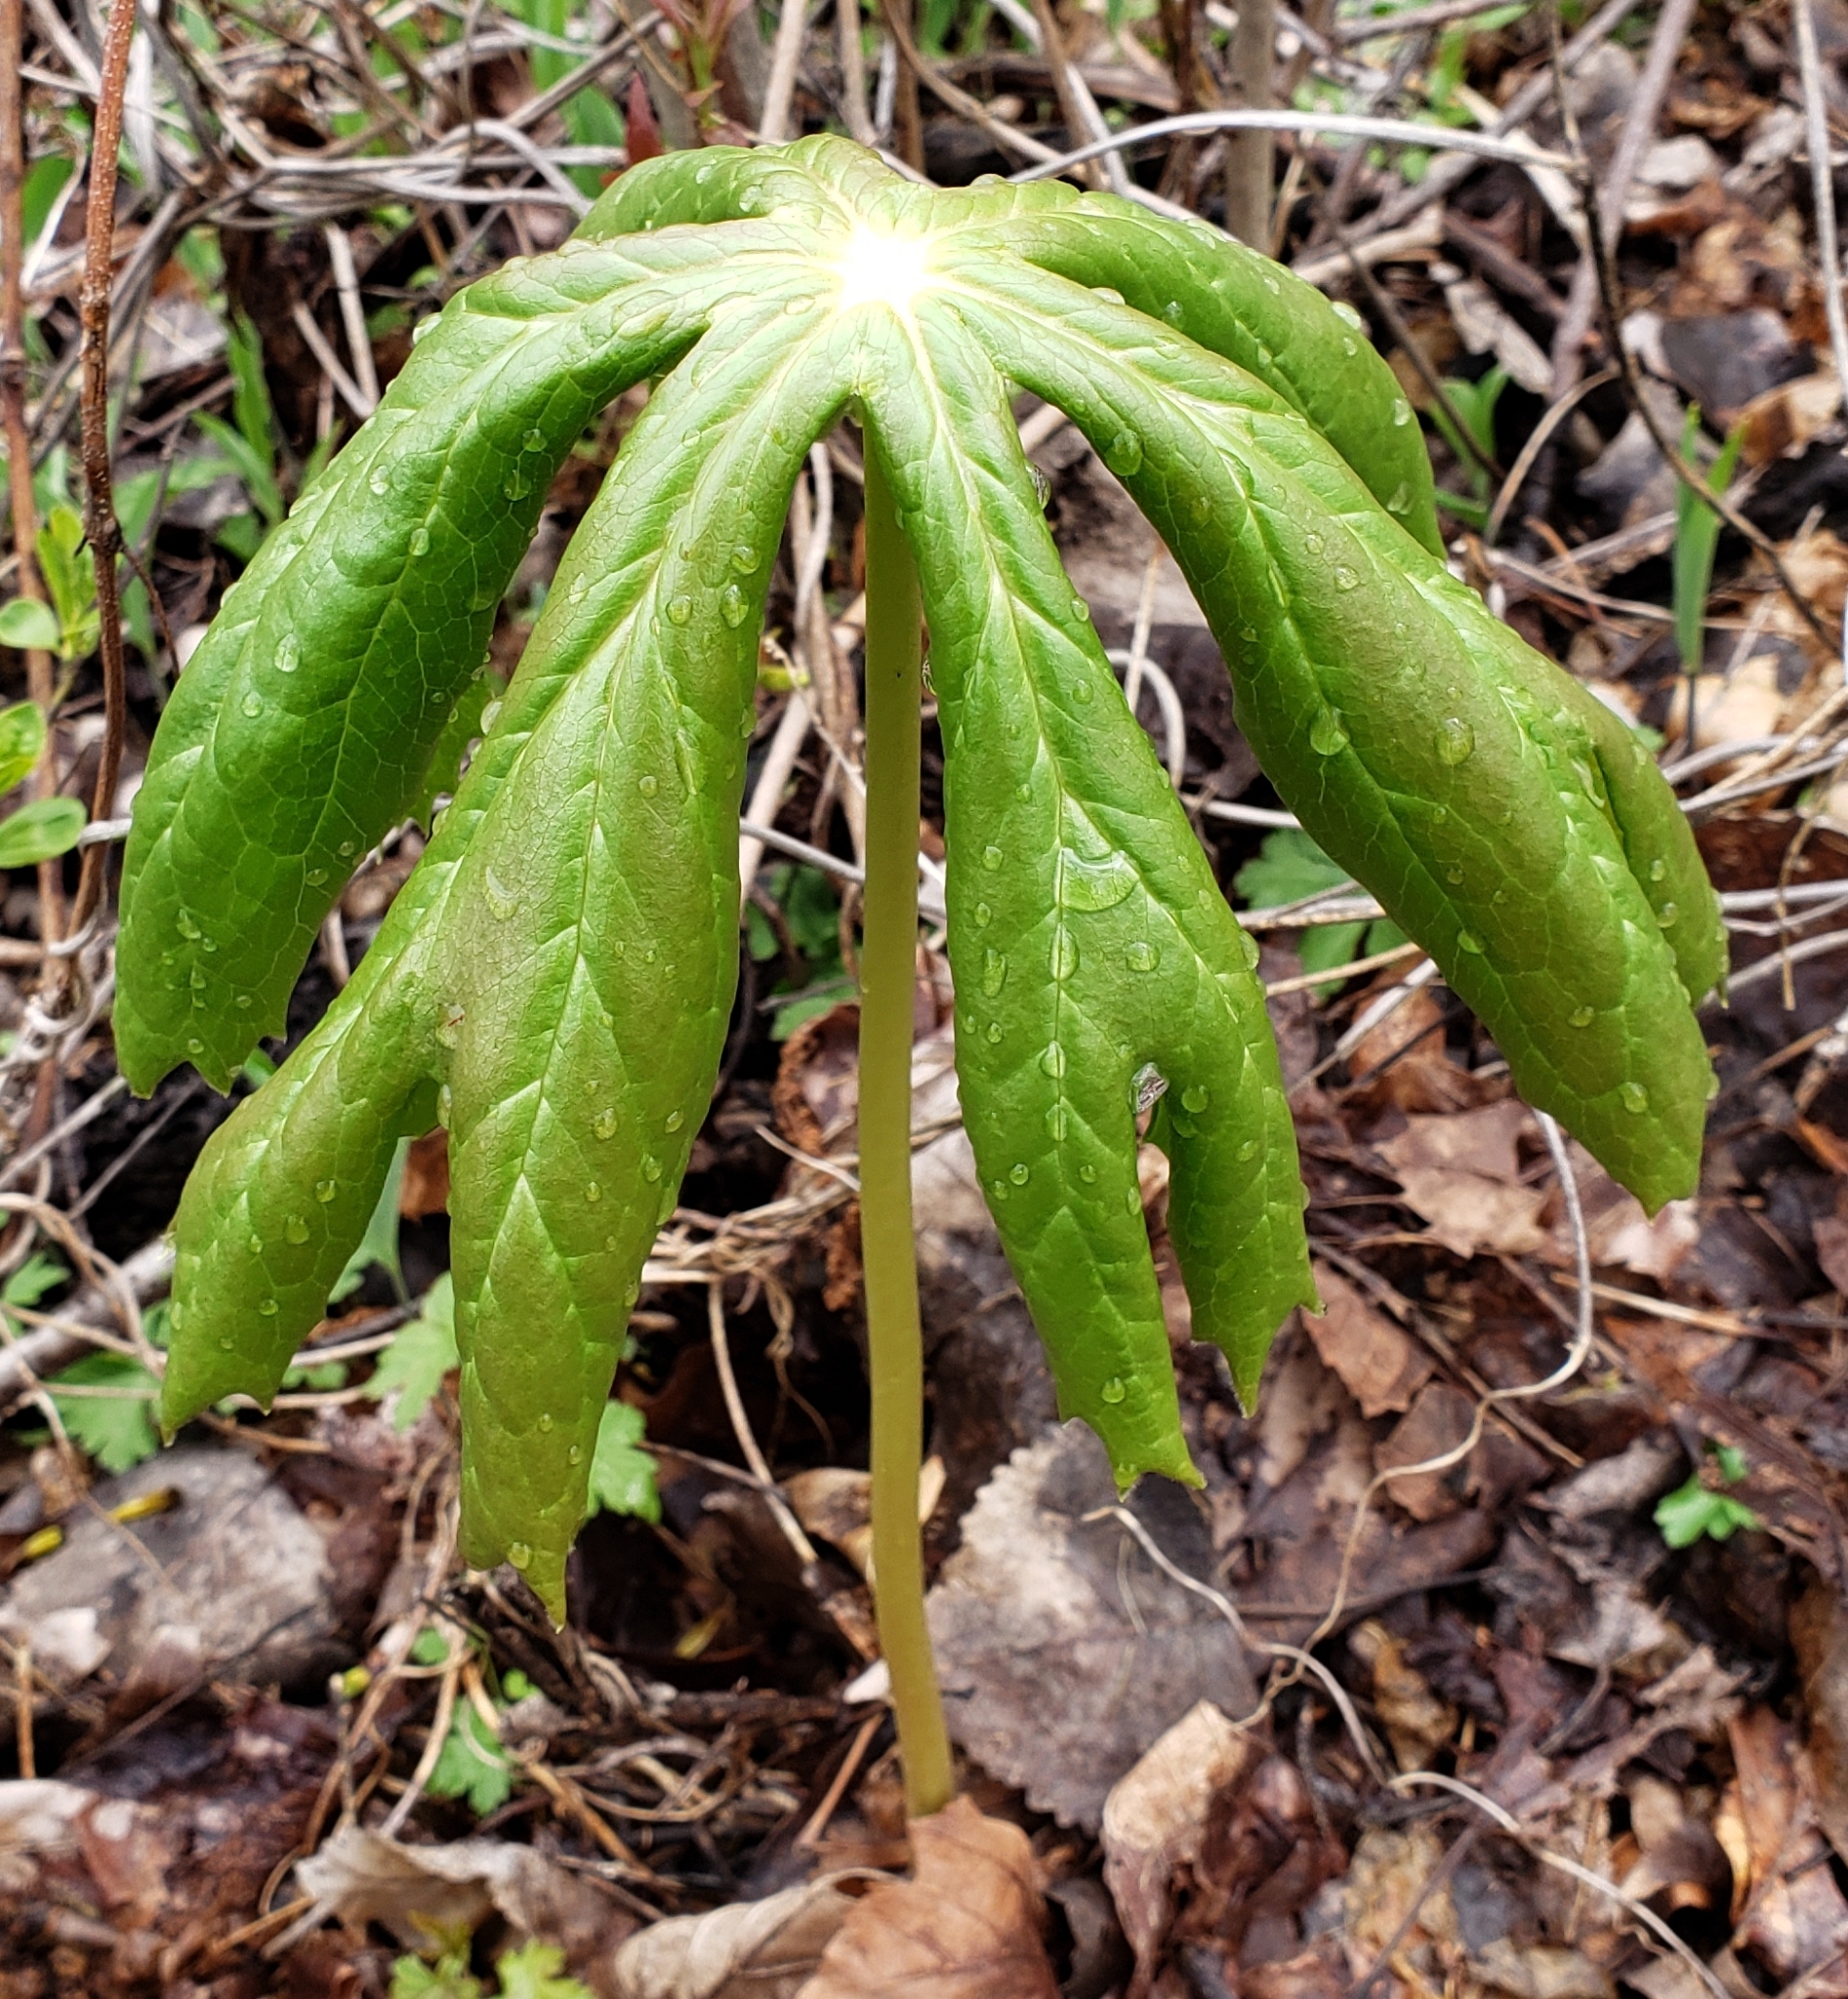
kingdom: Plantae
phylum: Tracheophyta
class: Magnoliopsida
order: Ranunculales
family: Berberidaceae
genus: Podophyllum
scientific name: Podophyllum peltatum
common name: Wild mandrake
